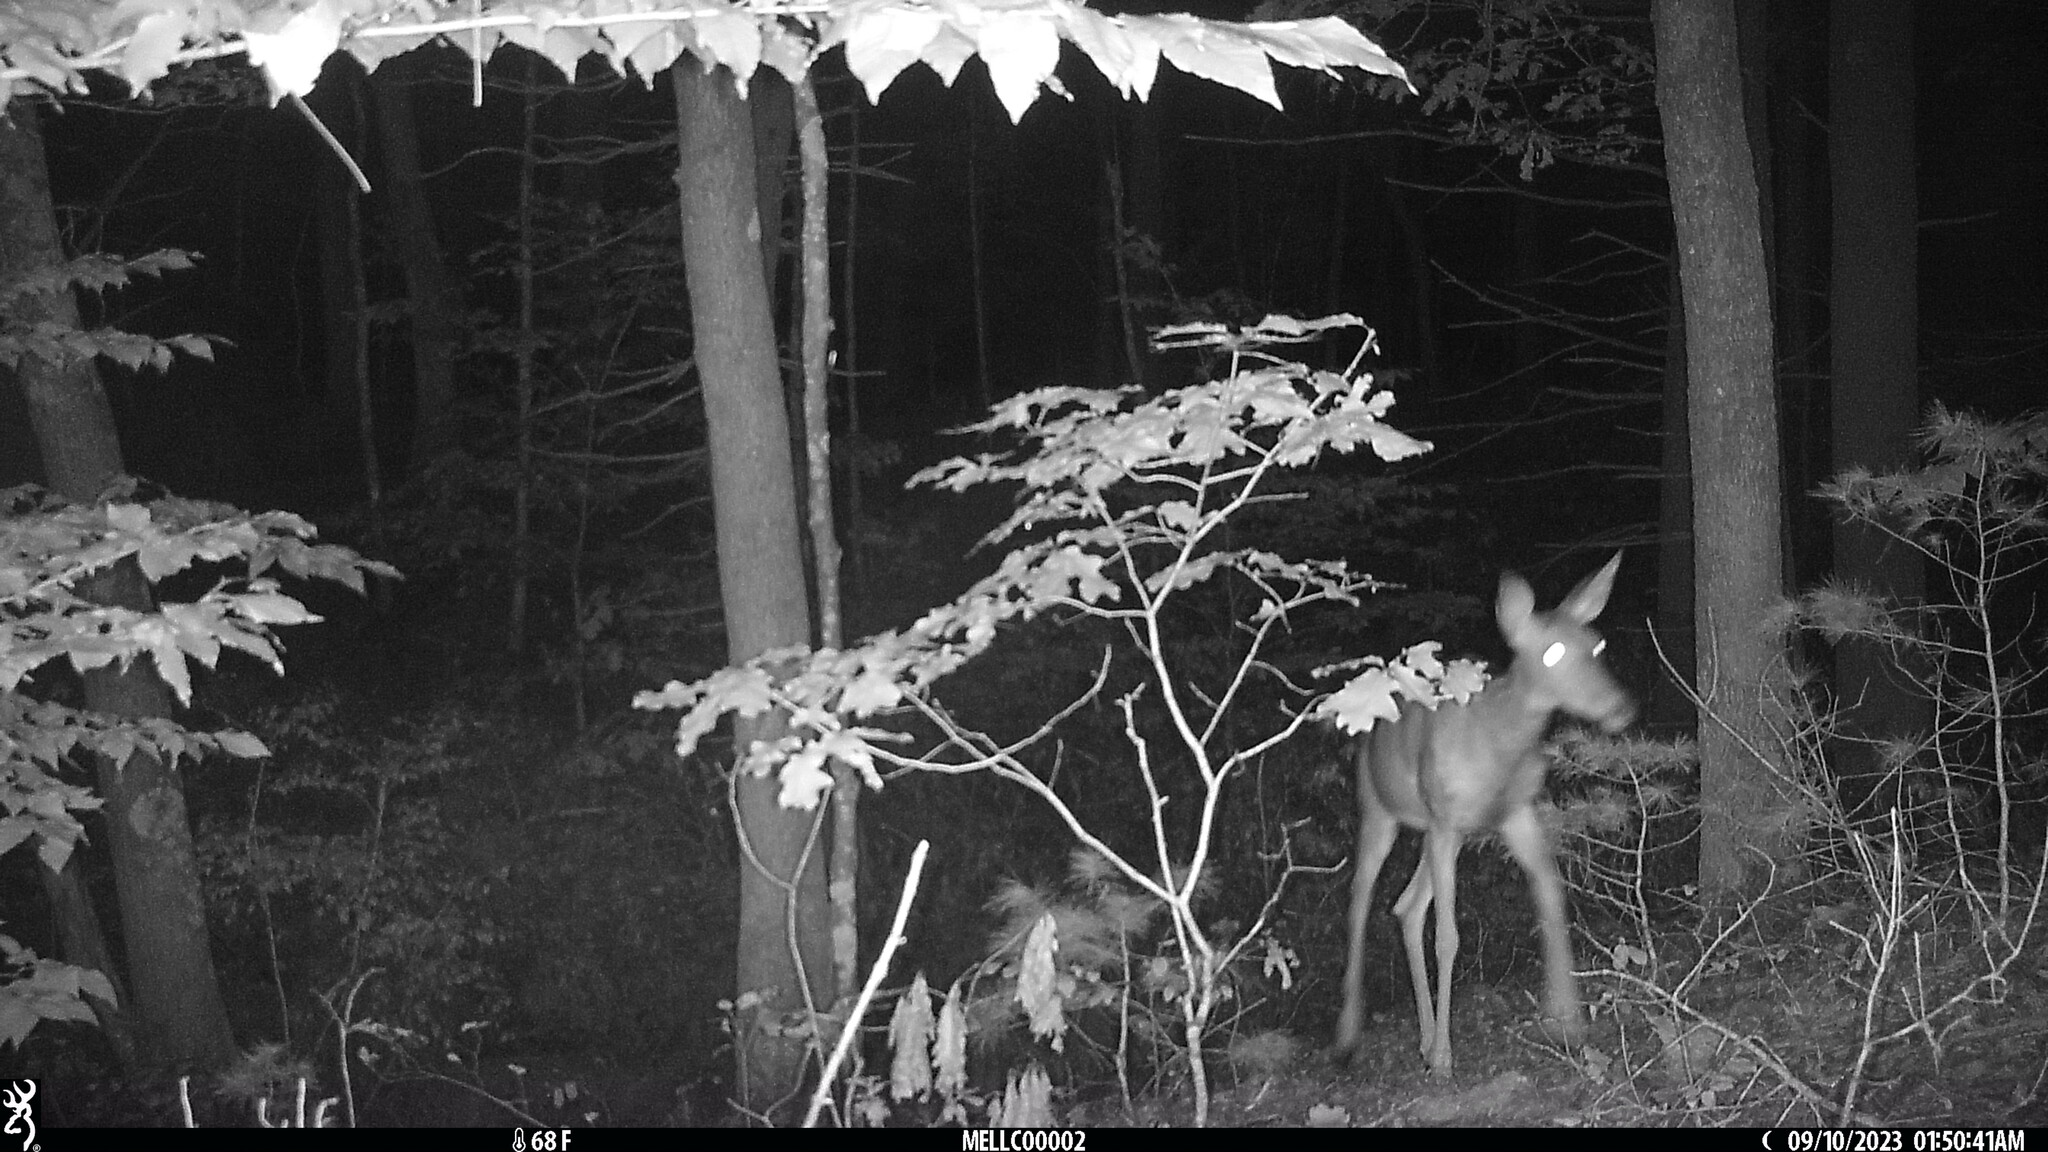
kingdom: Animalia
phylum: Chordata
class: Mammalia
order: Artiodactyla
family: Cervidae
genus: Odocoileus
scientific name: Odocoileus virginianus
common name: White-tailed deer
